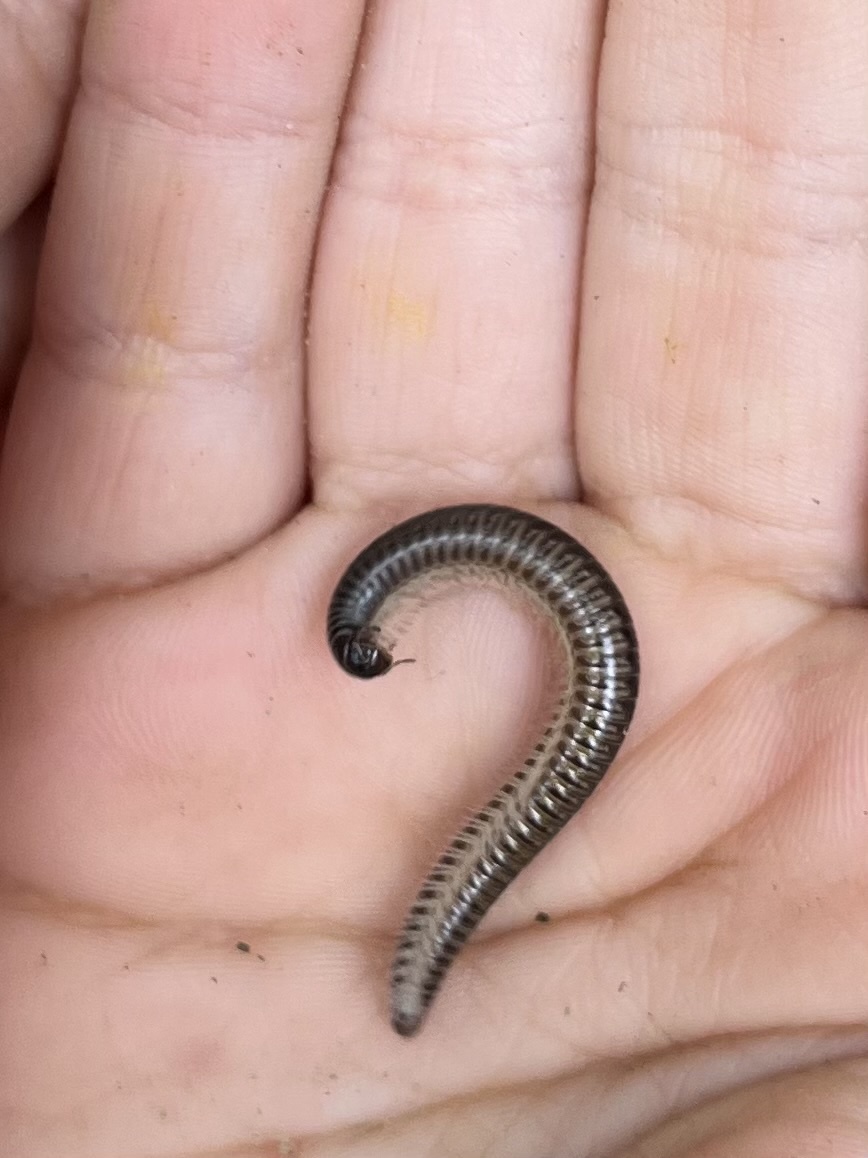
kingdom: Animalia
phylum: Arthropoda
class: Diplopoda
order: Julida
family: Julidae
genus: Ommatoiulus
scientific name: Ommatoiulus sabulosus
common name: Striped millipede
